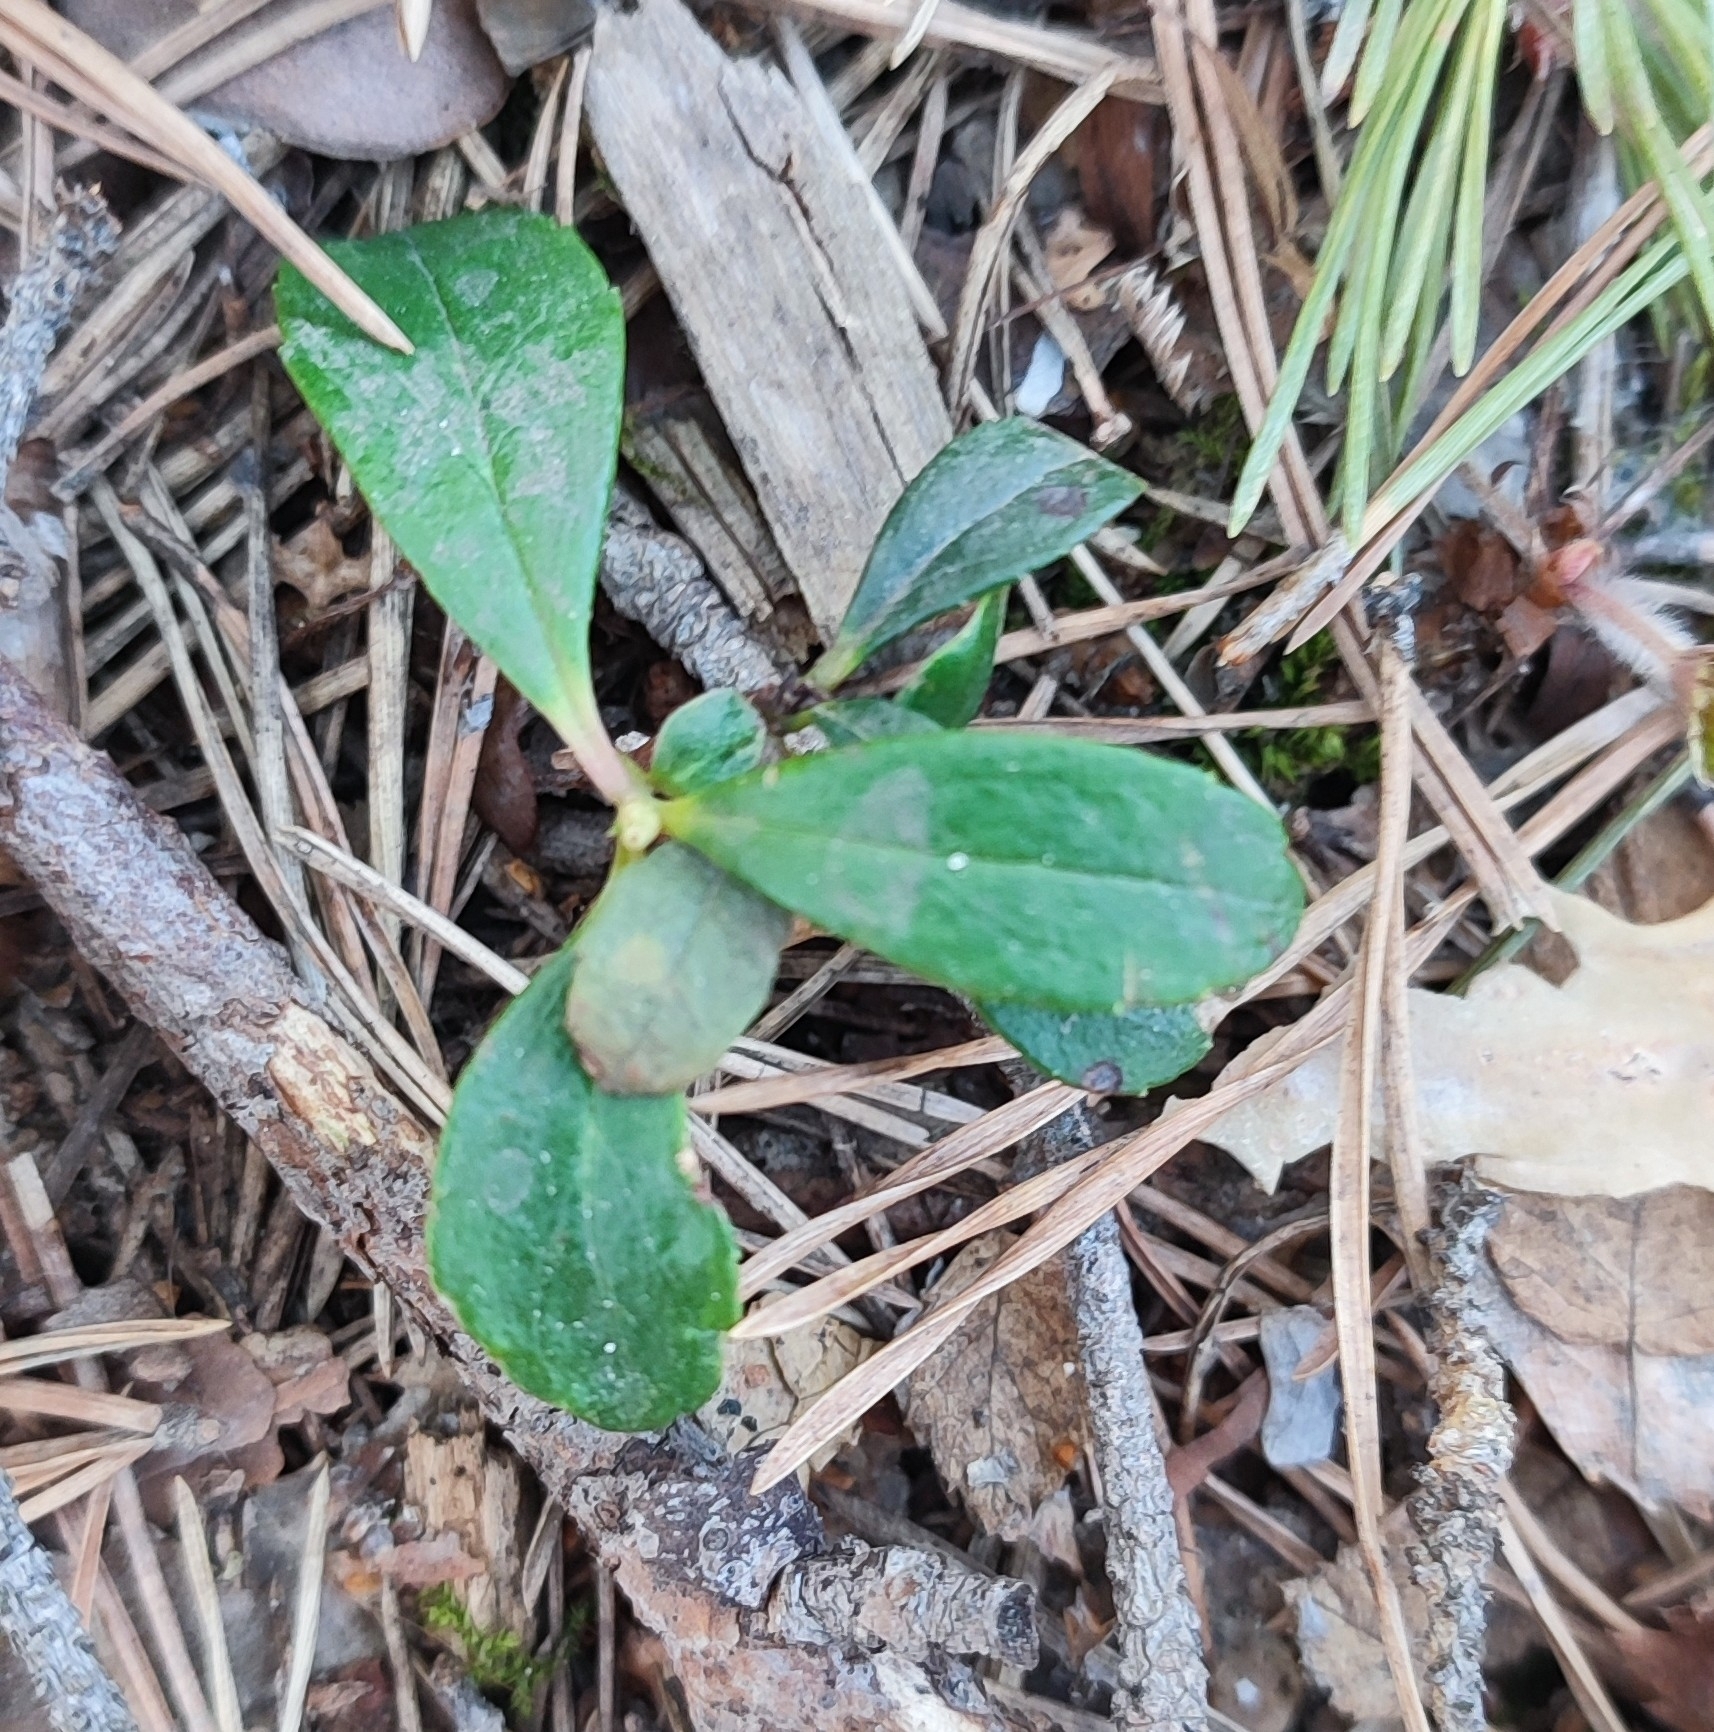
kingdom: Plantae
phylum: Tracheophyta
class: Magnoliopsida
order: Ericales
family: Ericaceae
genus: Chimaphila
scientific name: Chimaphila umbellata
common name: Pipsissewa
